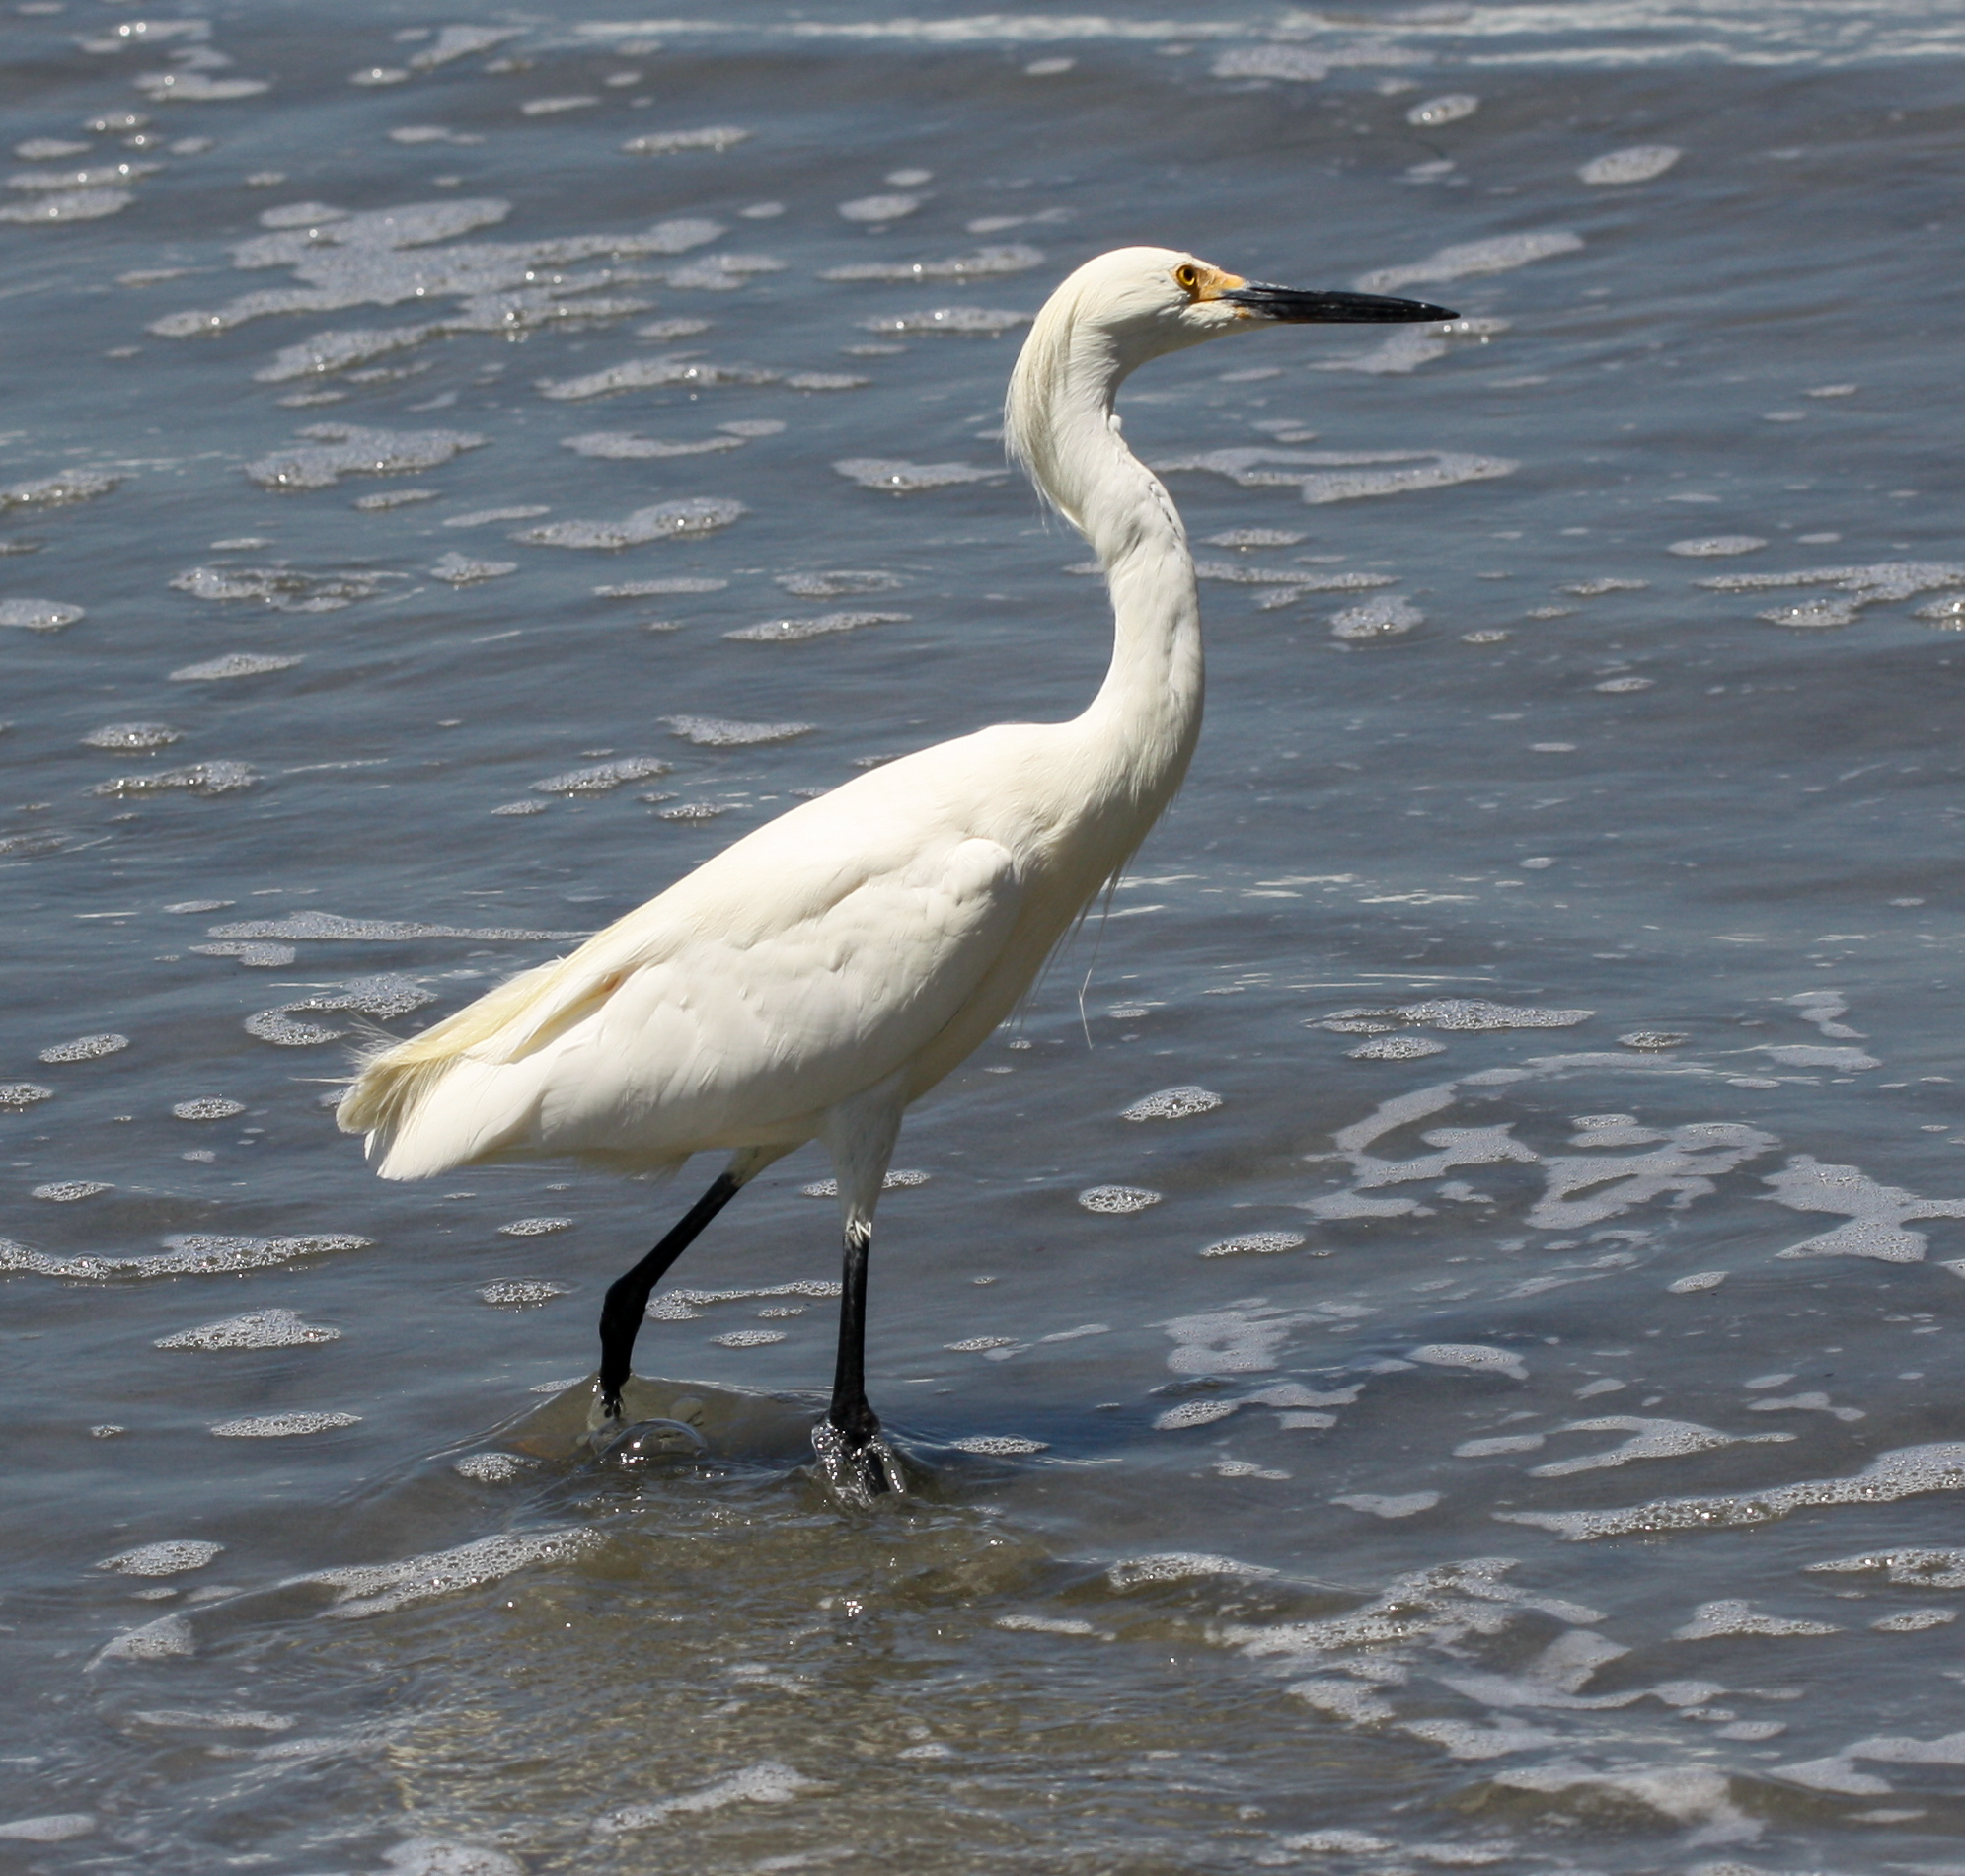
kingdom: Animalia
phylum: Chordata
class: Aves
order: Pelecaniformes
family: Ardeidae
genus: Egretta
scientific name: Egretta thula
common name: Snowy egret
